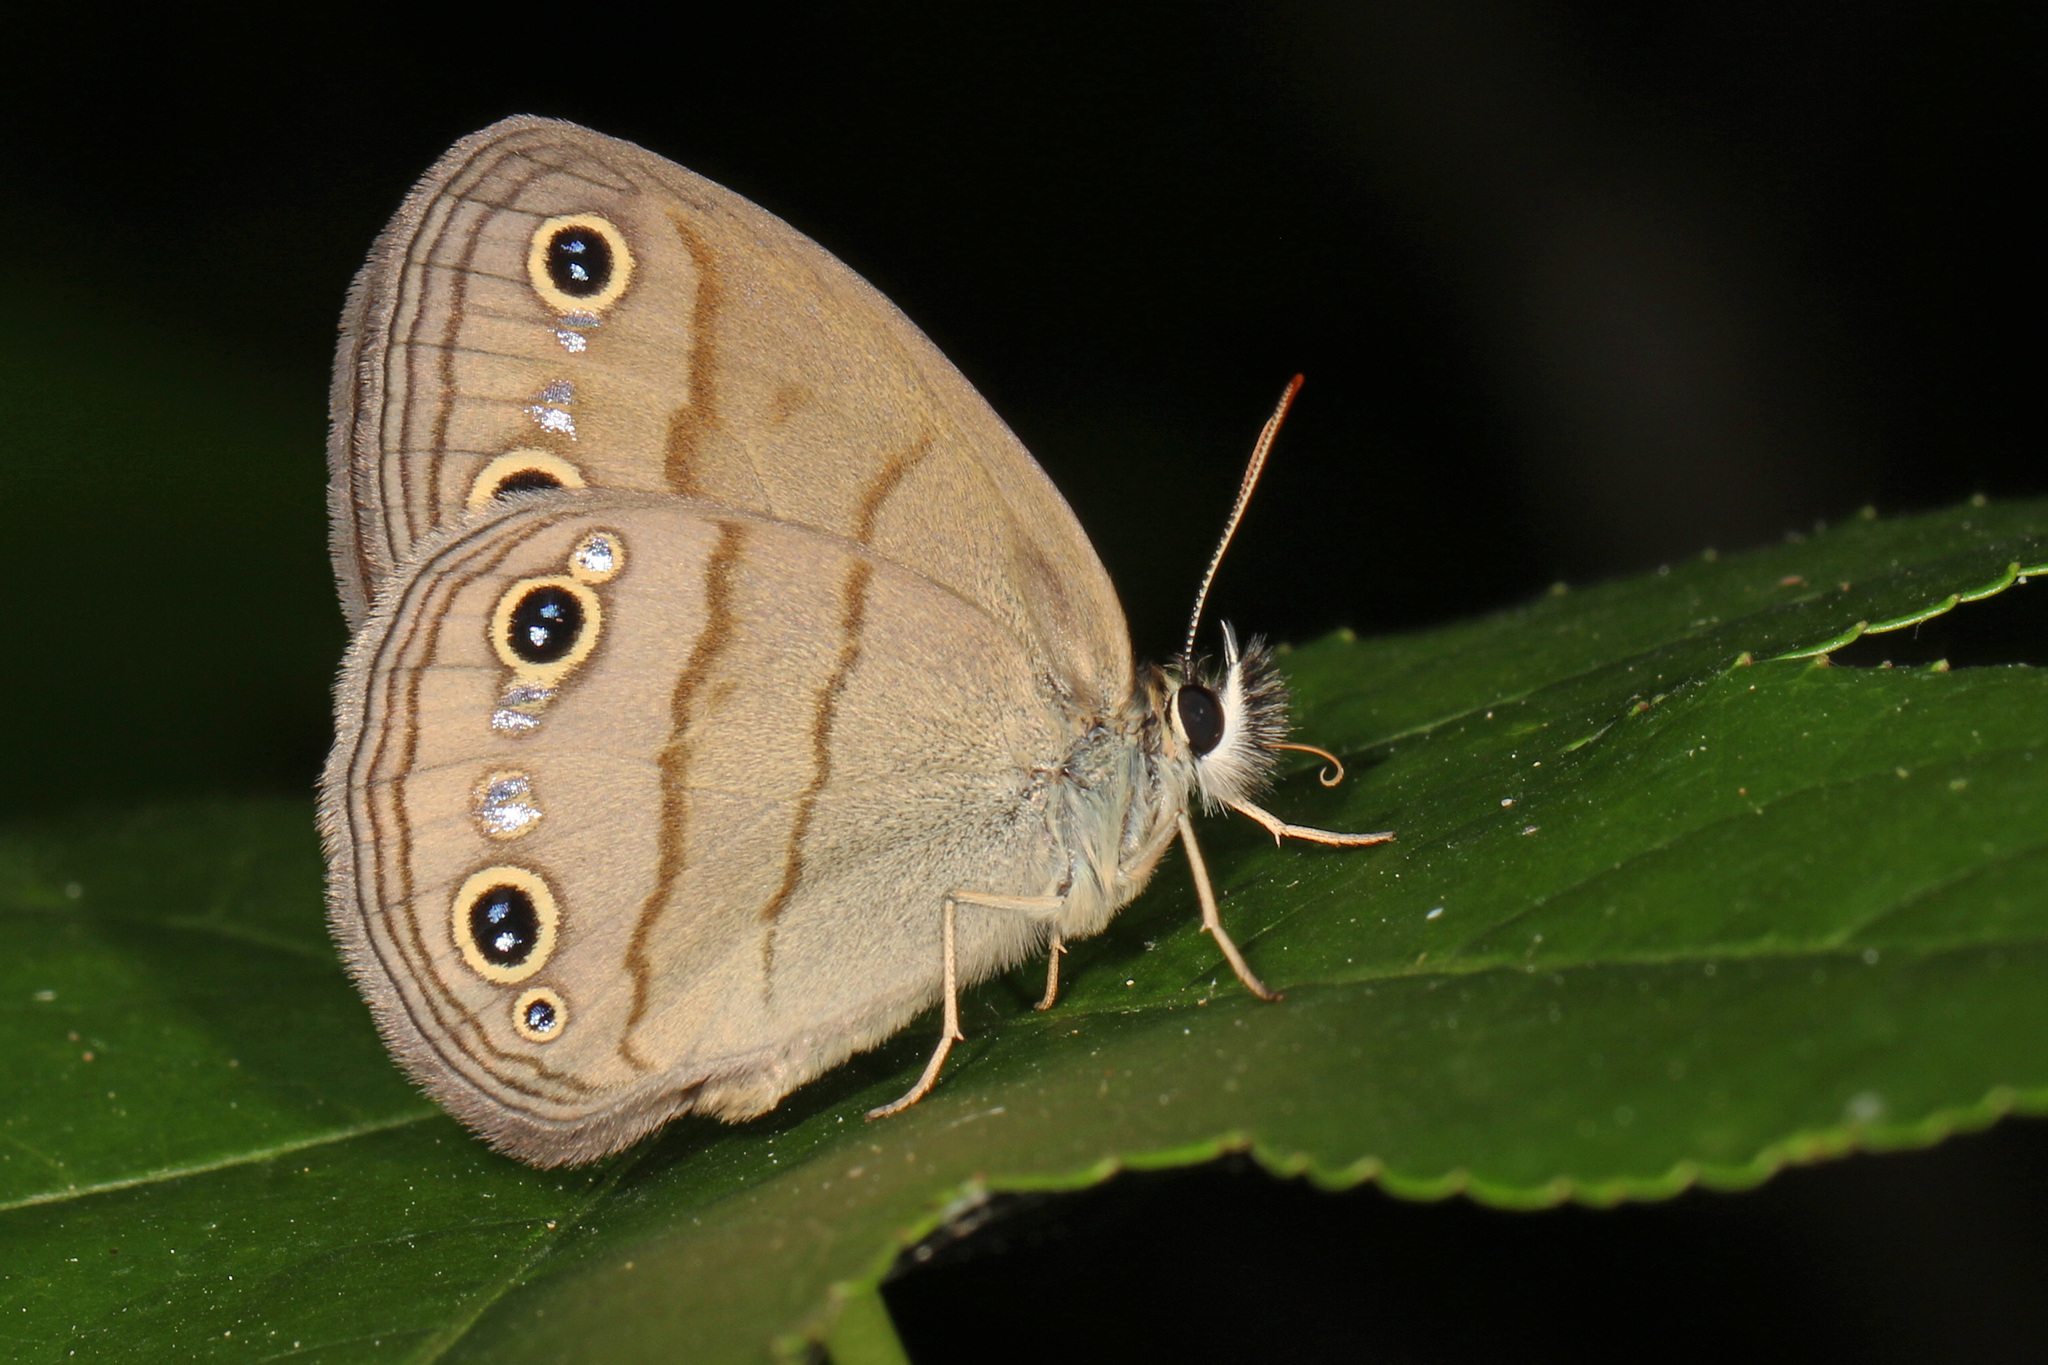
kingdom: Animalia
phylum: Arthropoda
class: Insecta
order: Lepidoptera
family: Nymphalidae
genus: Euptychia
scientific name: Euptychia cymela
